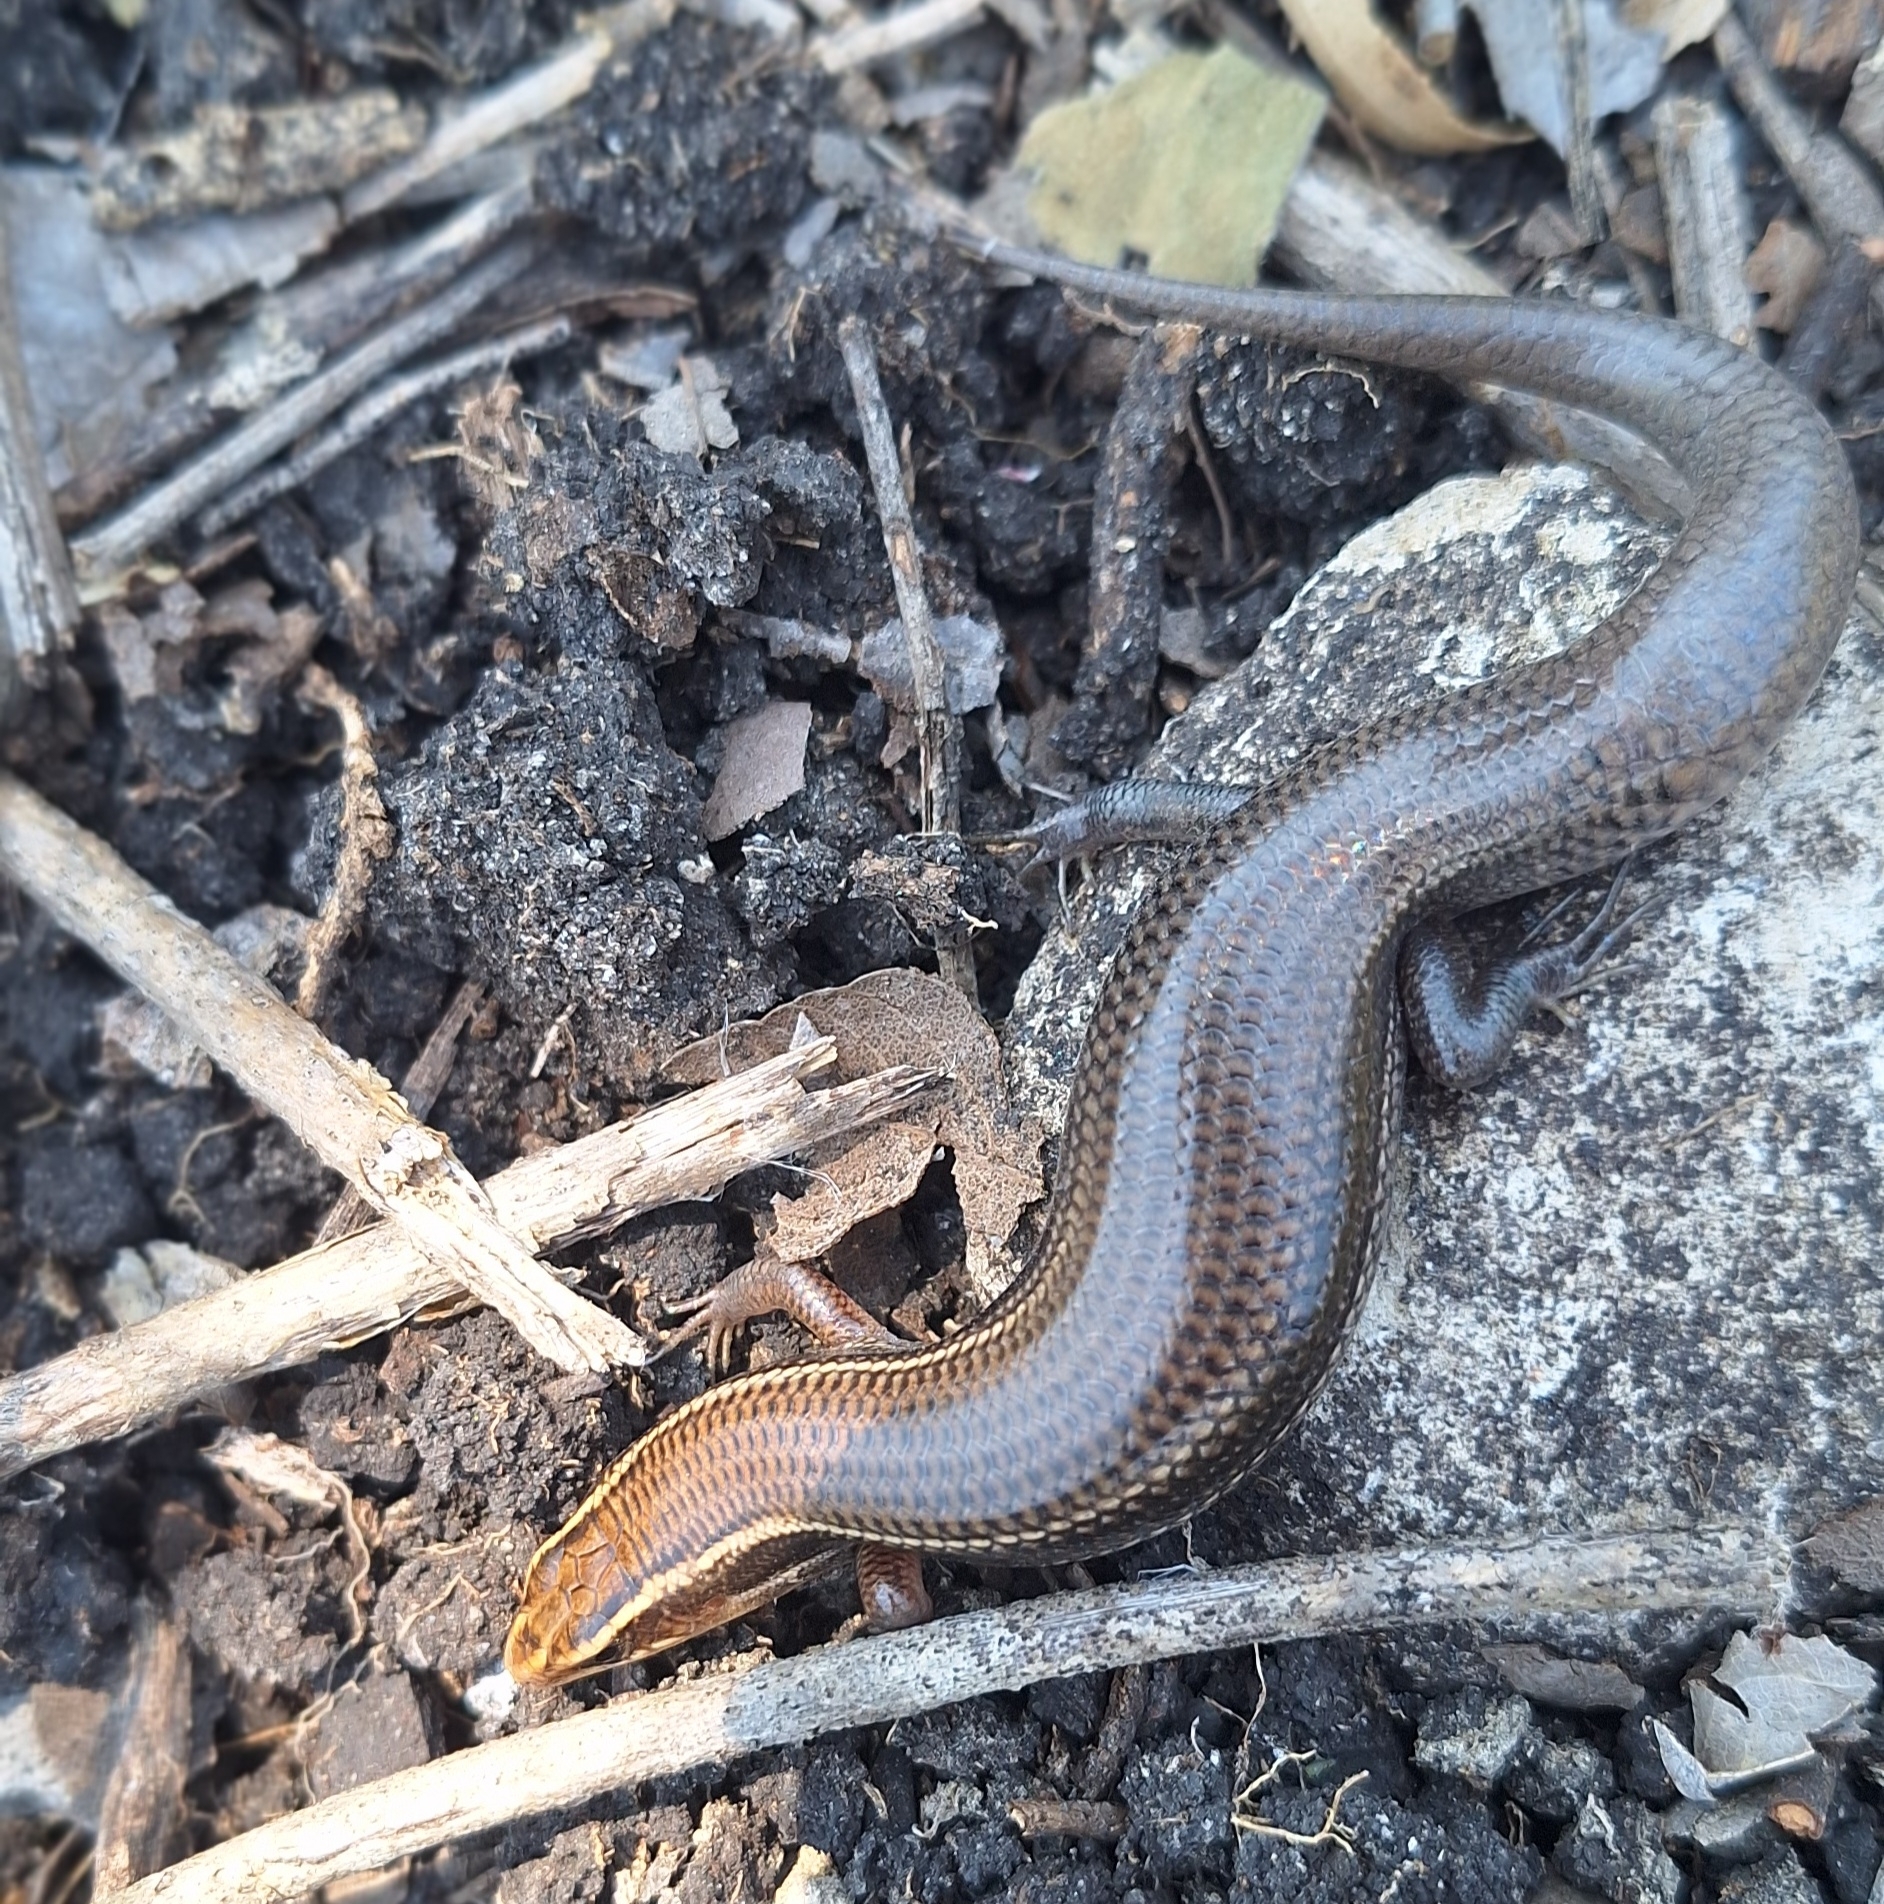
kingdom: Animalia
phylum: Chordata
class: Squamata
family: Scincidae
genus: Plestiodon
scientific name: Plestiodon tetragrammus
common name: Four-lined skink
